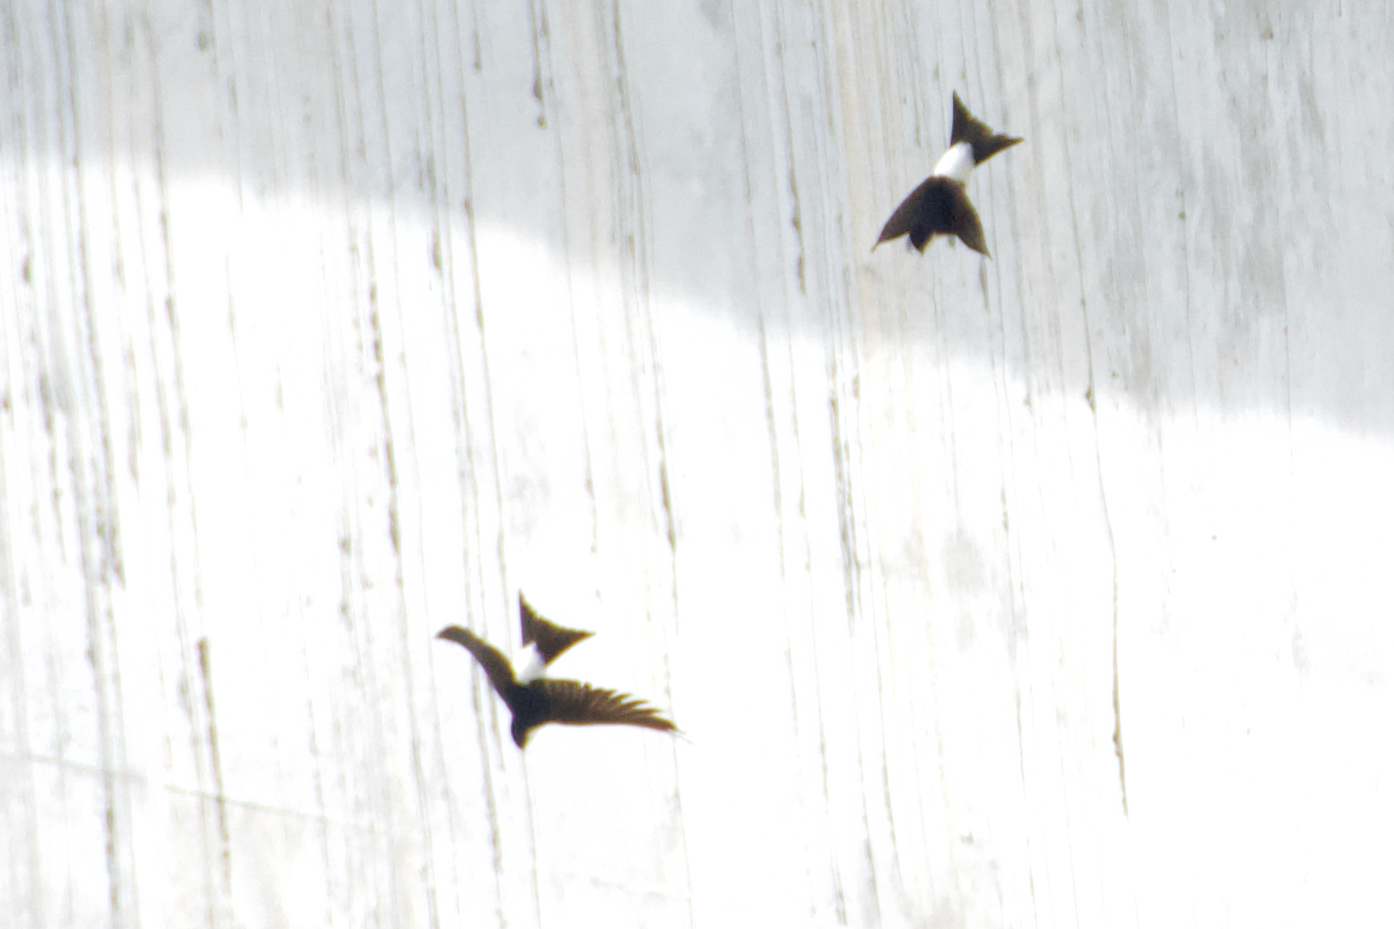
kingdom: Animalia
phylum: Chordata
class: Aves
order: Passeriformes
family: Hirundinidae
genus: Delichon
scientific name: Delichon urbicum
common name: Common house martin
